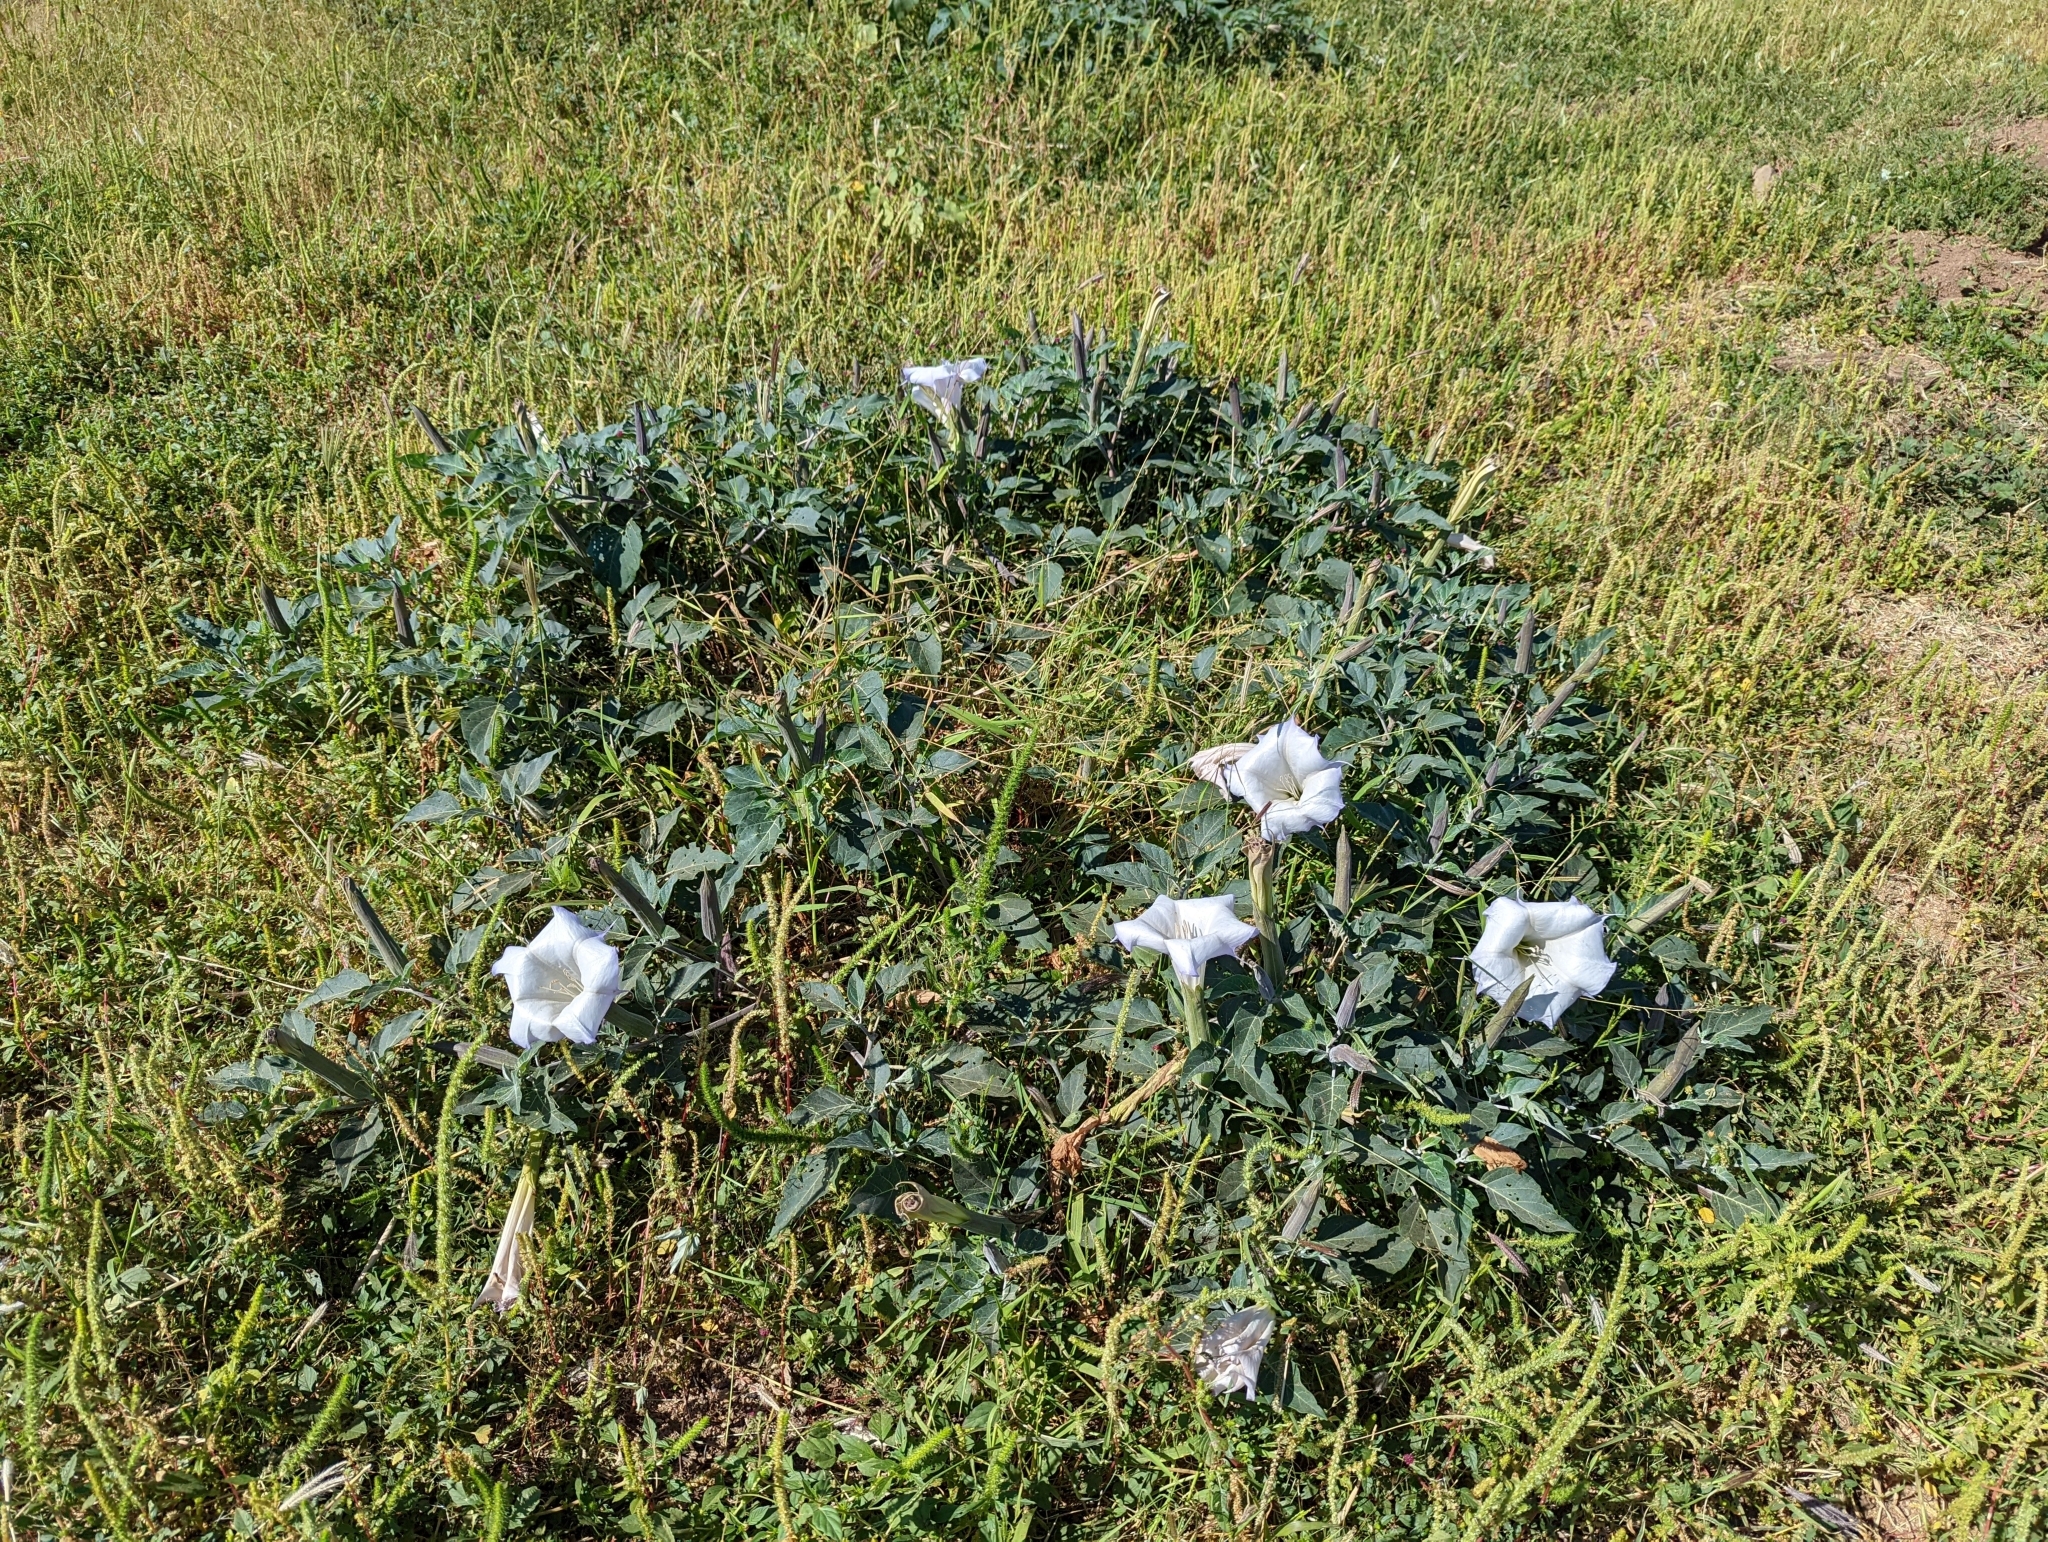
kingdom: Plantae
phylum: Tracheophyta
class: Magnoliopsida
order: Solanales
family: Solanaceae
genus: Datura
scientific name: Datura wrightii
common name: Sacred thorn-apple
